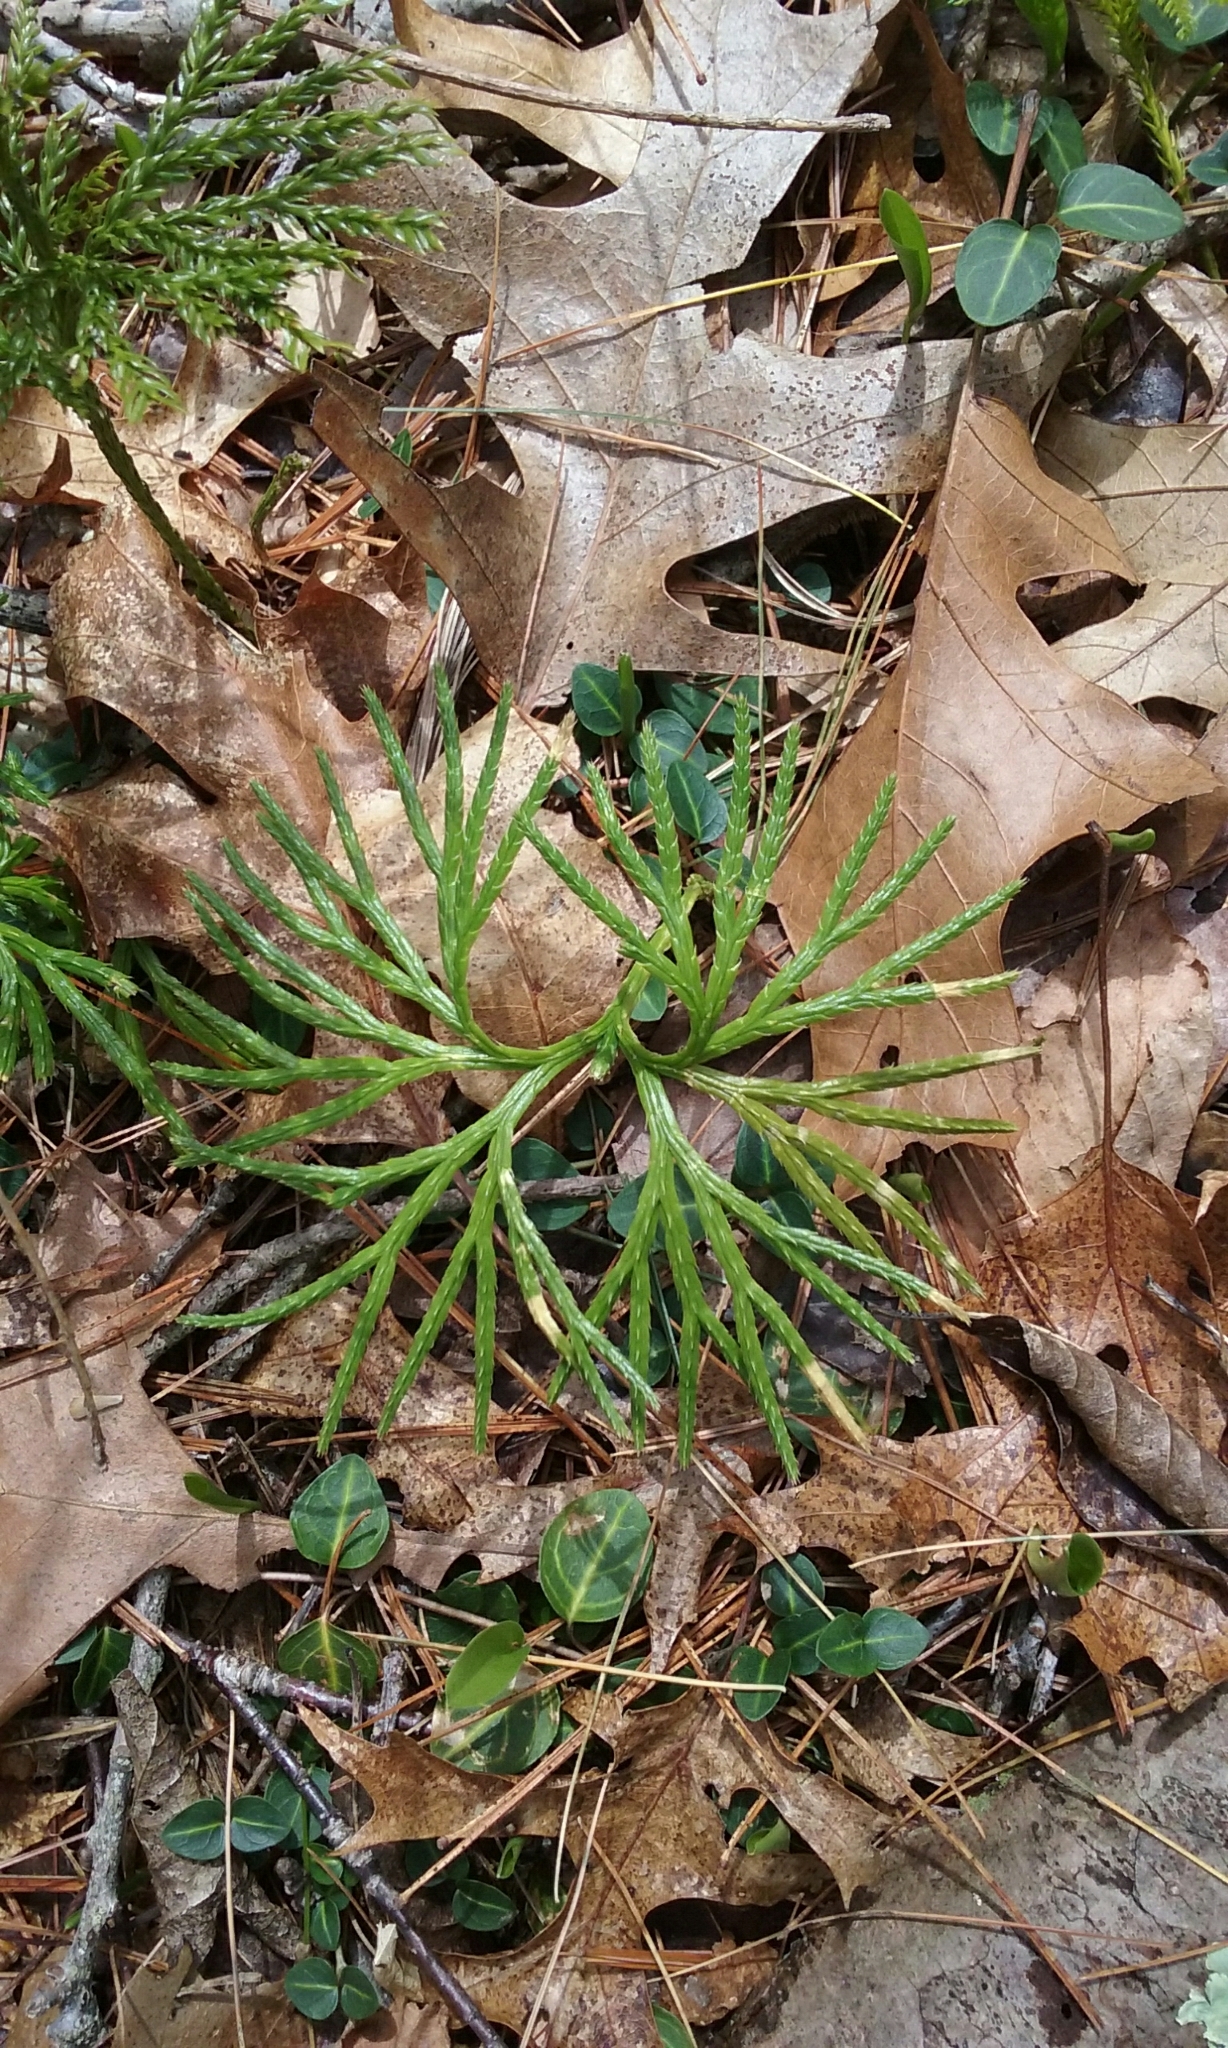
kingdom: Plantae
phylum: Tracheophyta
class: Lycopodiopsida
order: Lycopodiales
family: Lycopodiaceae
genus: Diphasiastrum
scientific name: Diphasiastrum digitatum
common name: Southern running-pine
